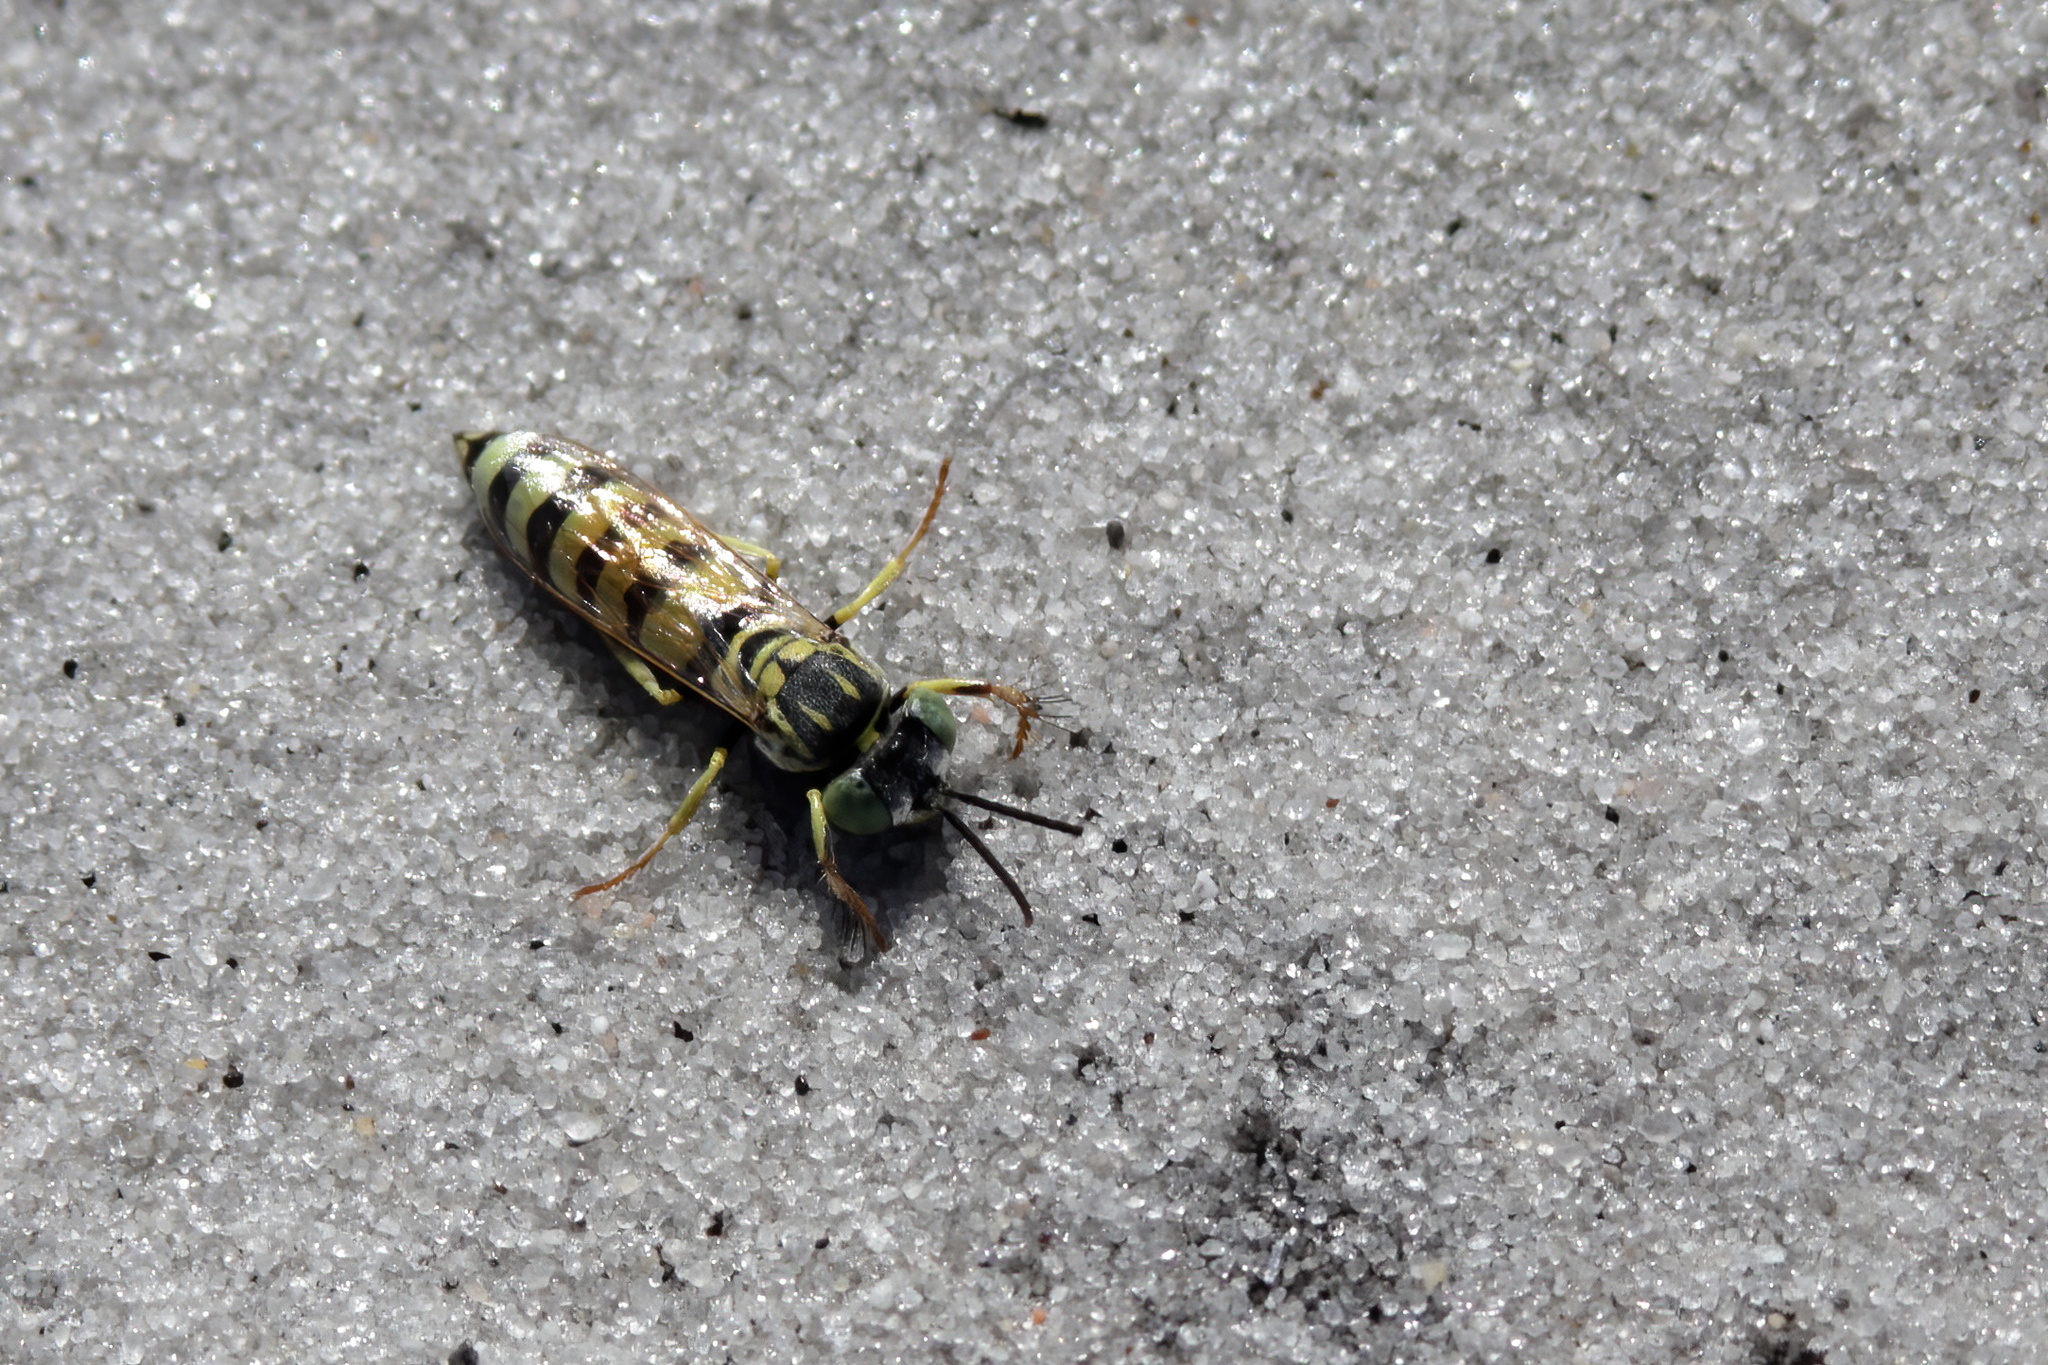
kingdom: Animalia
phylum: Arthropoda
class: Insecta
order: Hymenoptera
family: Crabronidae
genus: Microbembex
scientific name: Microbembex monodonta
